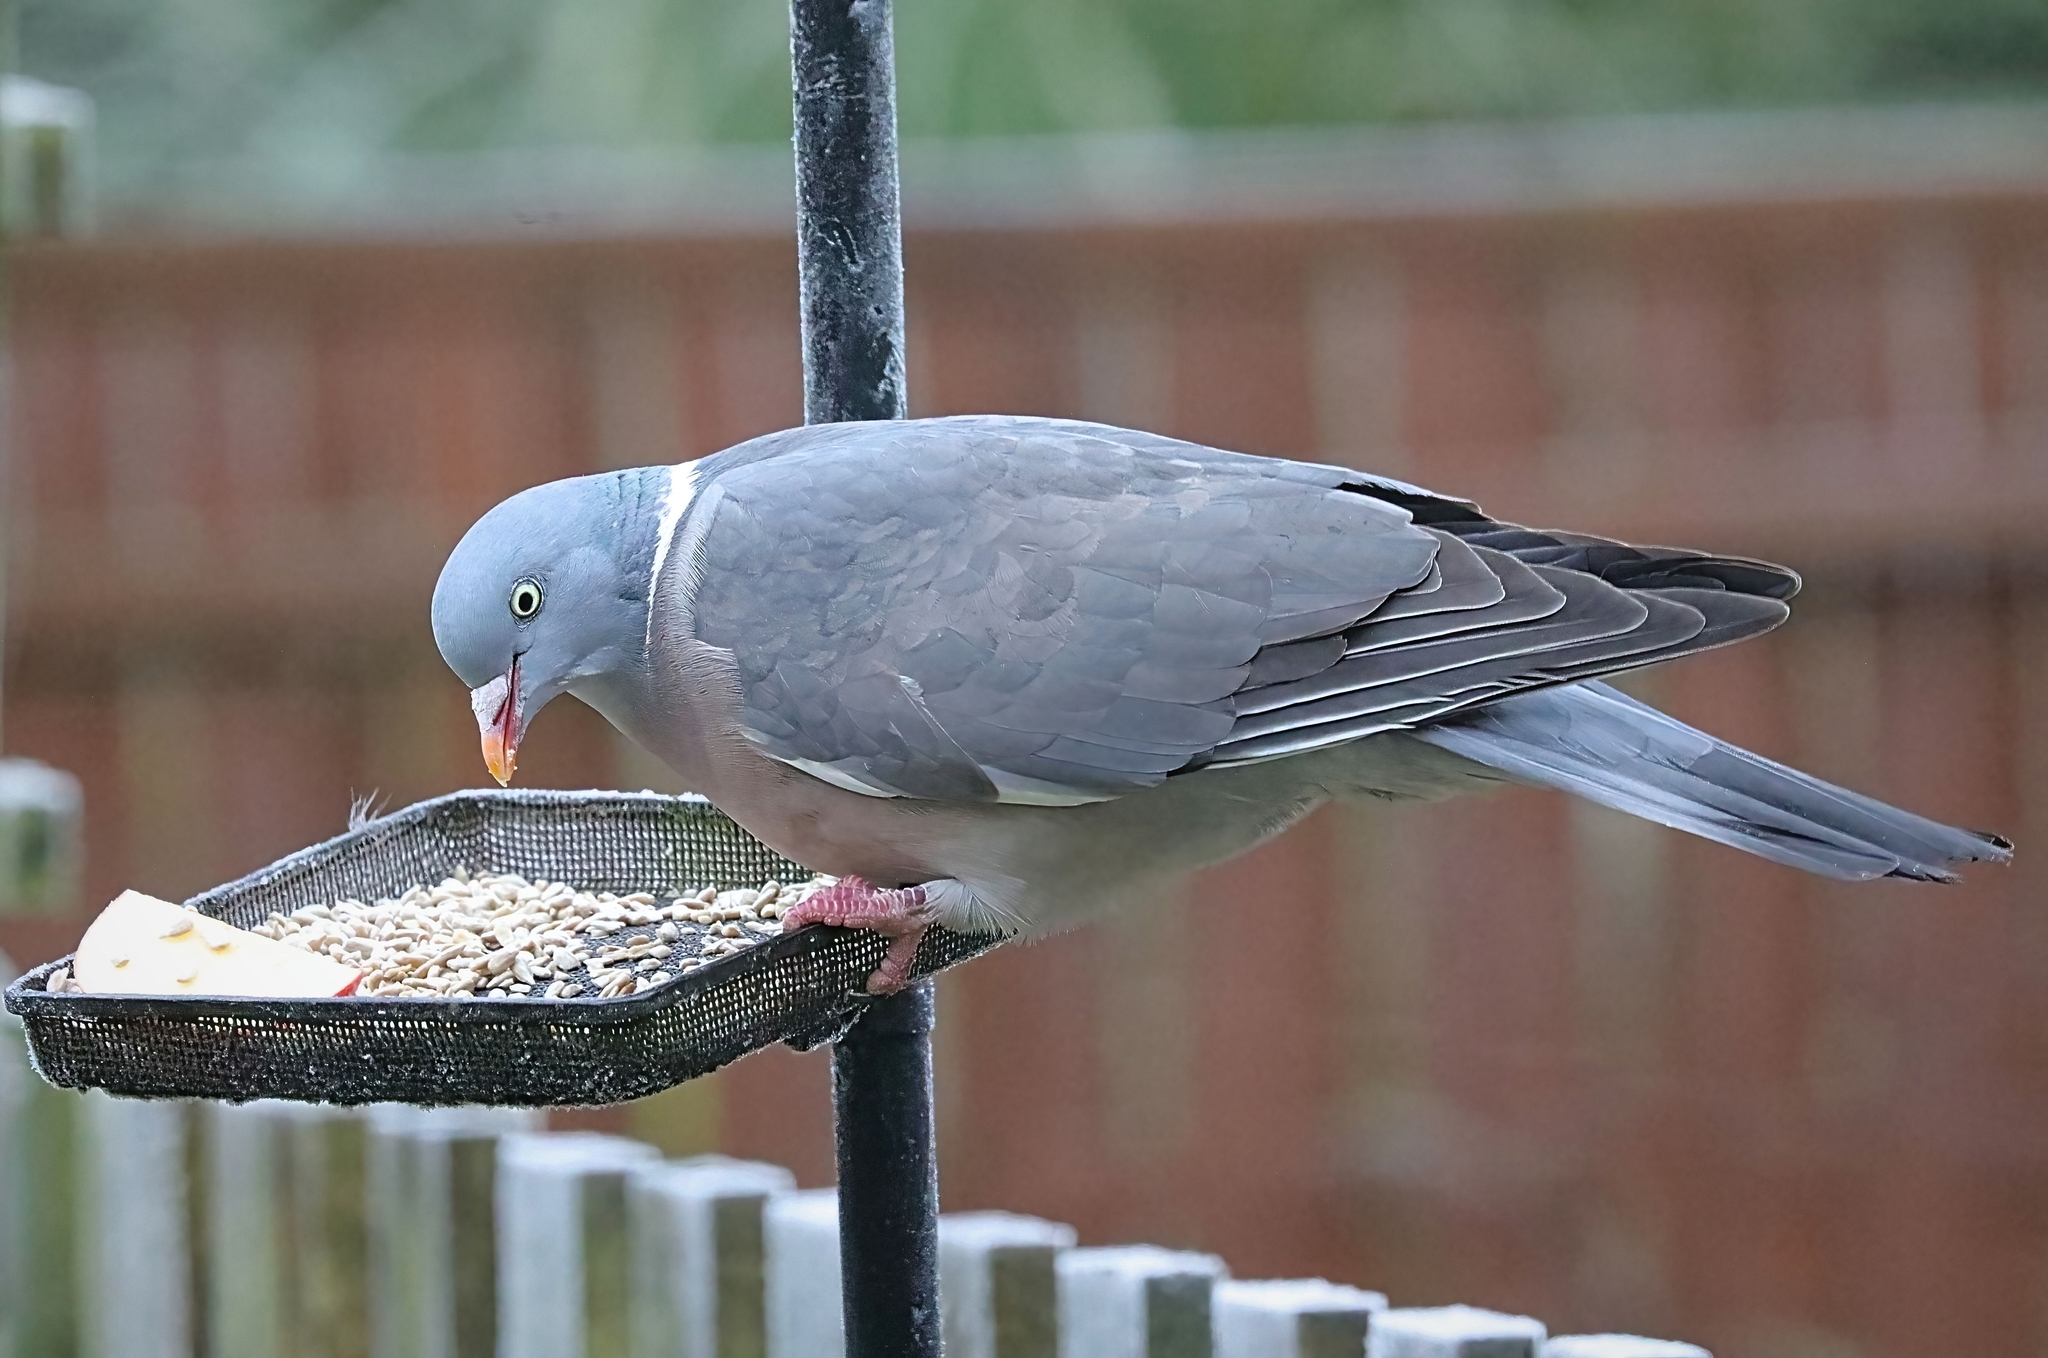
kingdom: Animalia
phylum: Chordata
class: Aves
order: Columbiformes
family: Columbidae
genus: Columba
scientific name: Columba palumbus
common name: Common wood pigeon
